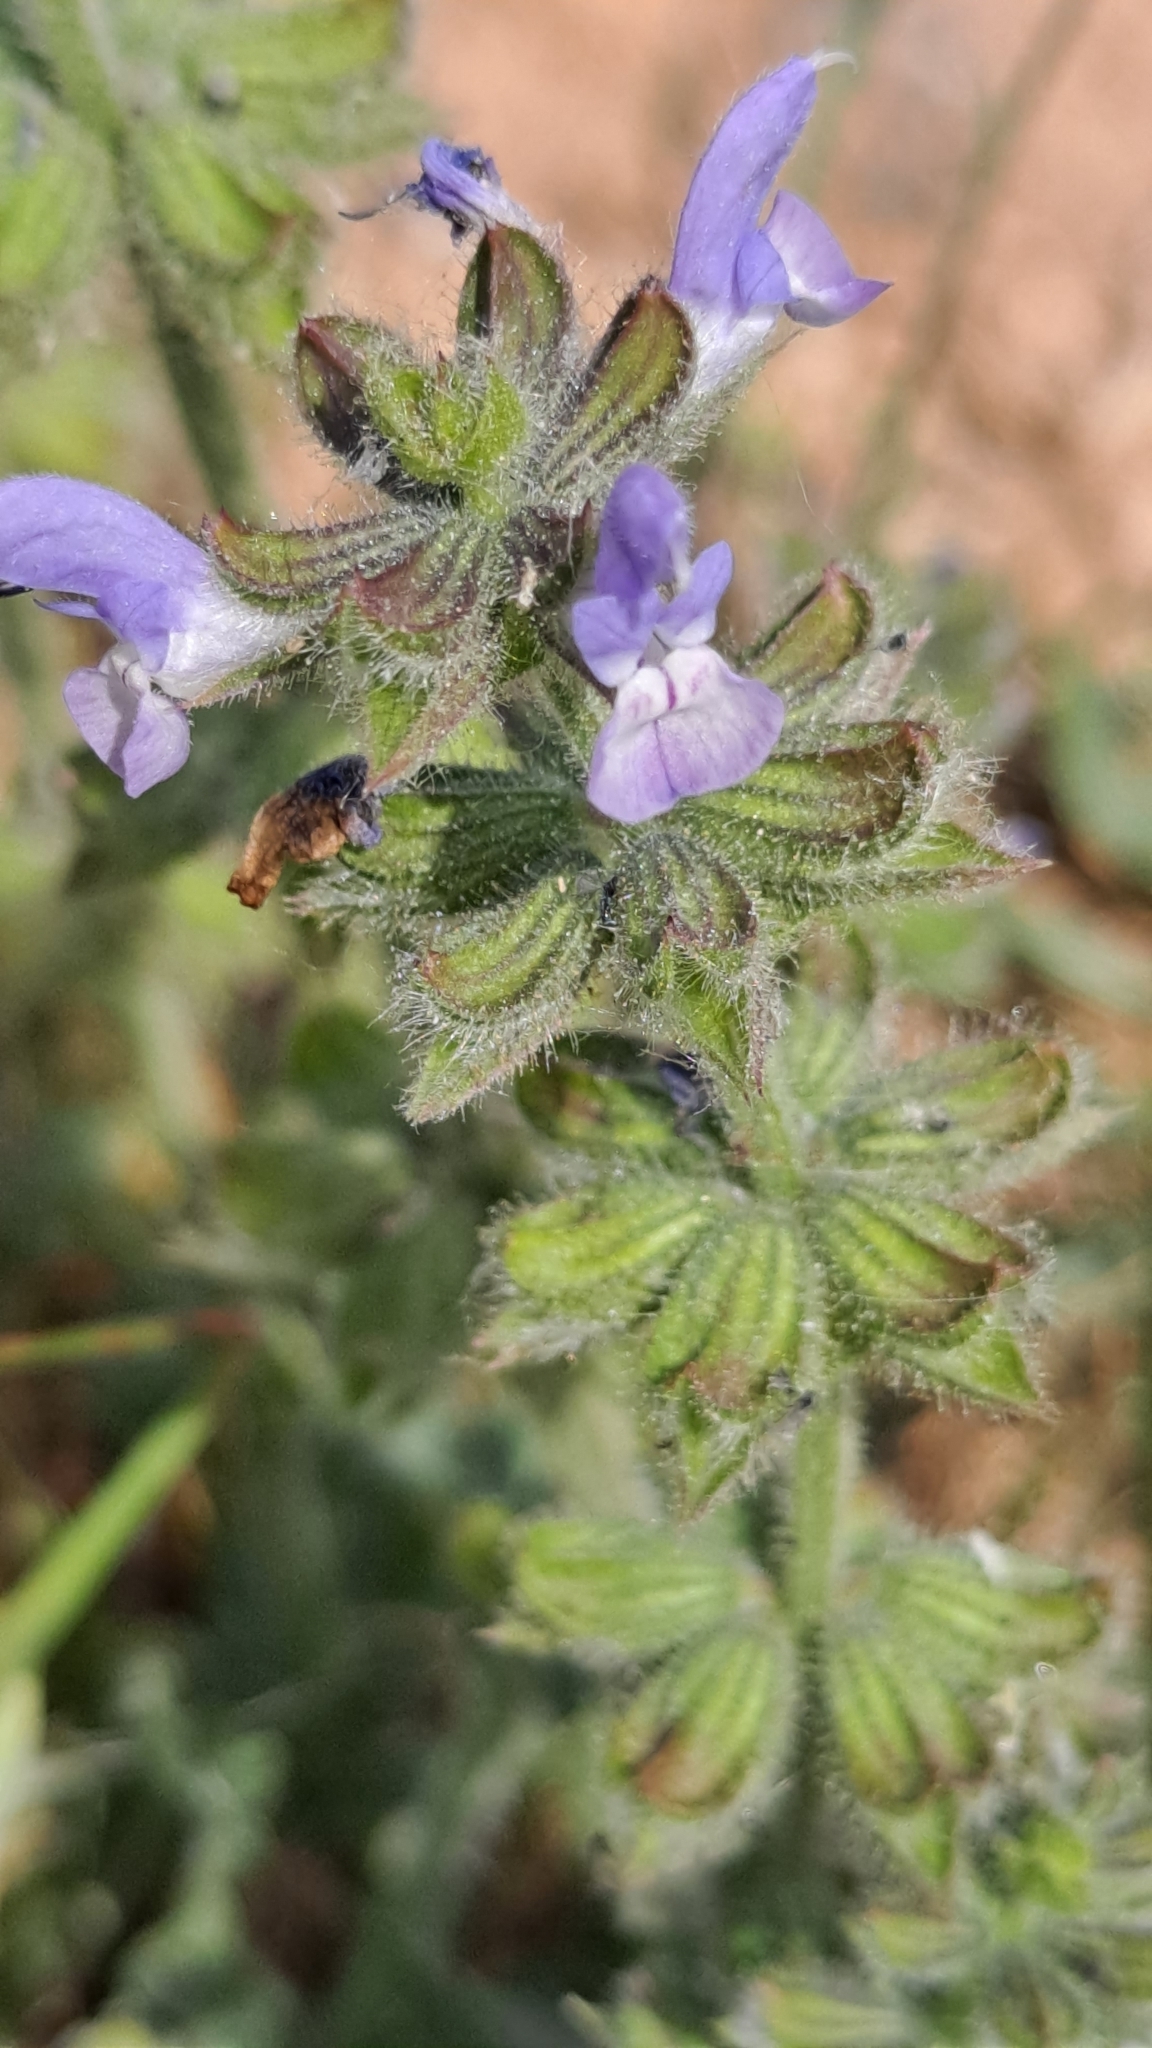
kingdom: Plantae
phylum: Tracheophyta
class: Magnoliopsida
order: Lamiales
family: Lamiaceae
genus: Salvia
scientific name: Salvia verbenaca
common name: Wild clary
